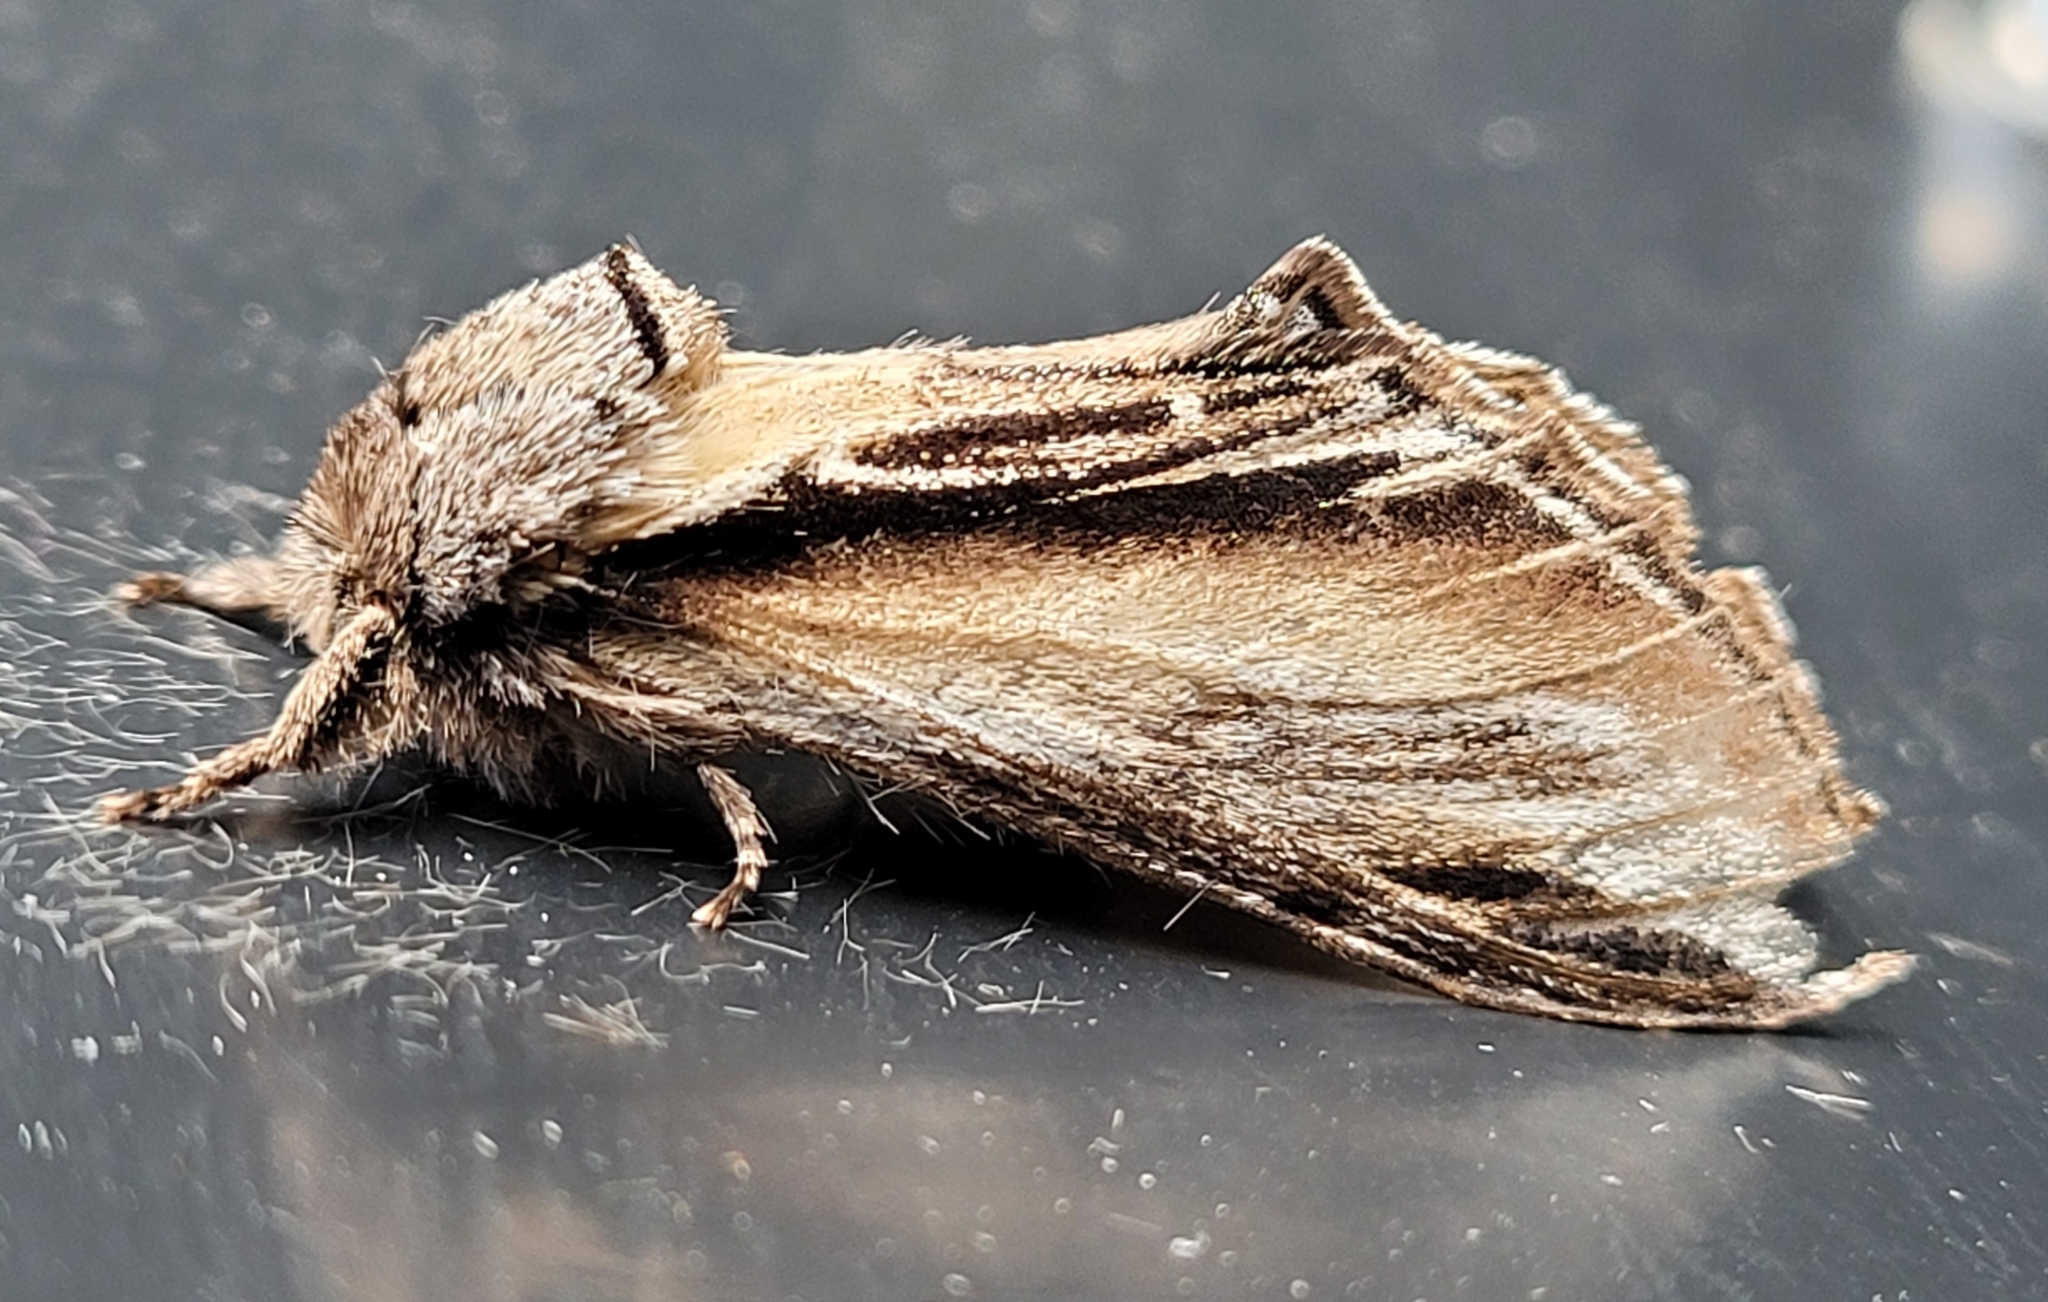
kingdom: Animalia
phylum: Arthropoda
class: Insecta
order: Lepidoptera
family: Notodontidae
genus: Pheosia
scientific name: Pheosia tremula
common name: Swallow prominent
